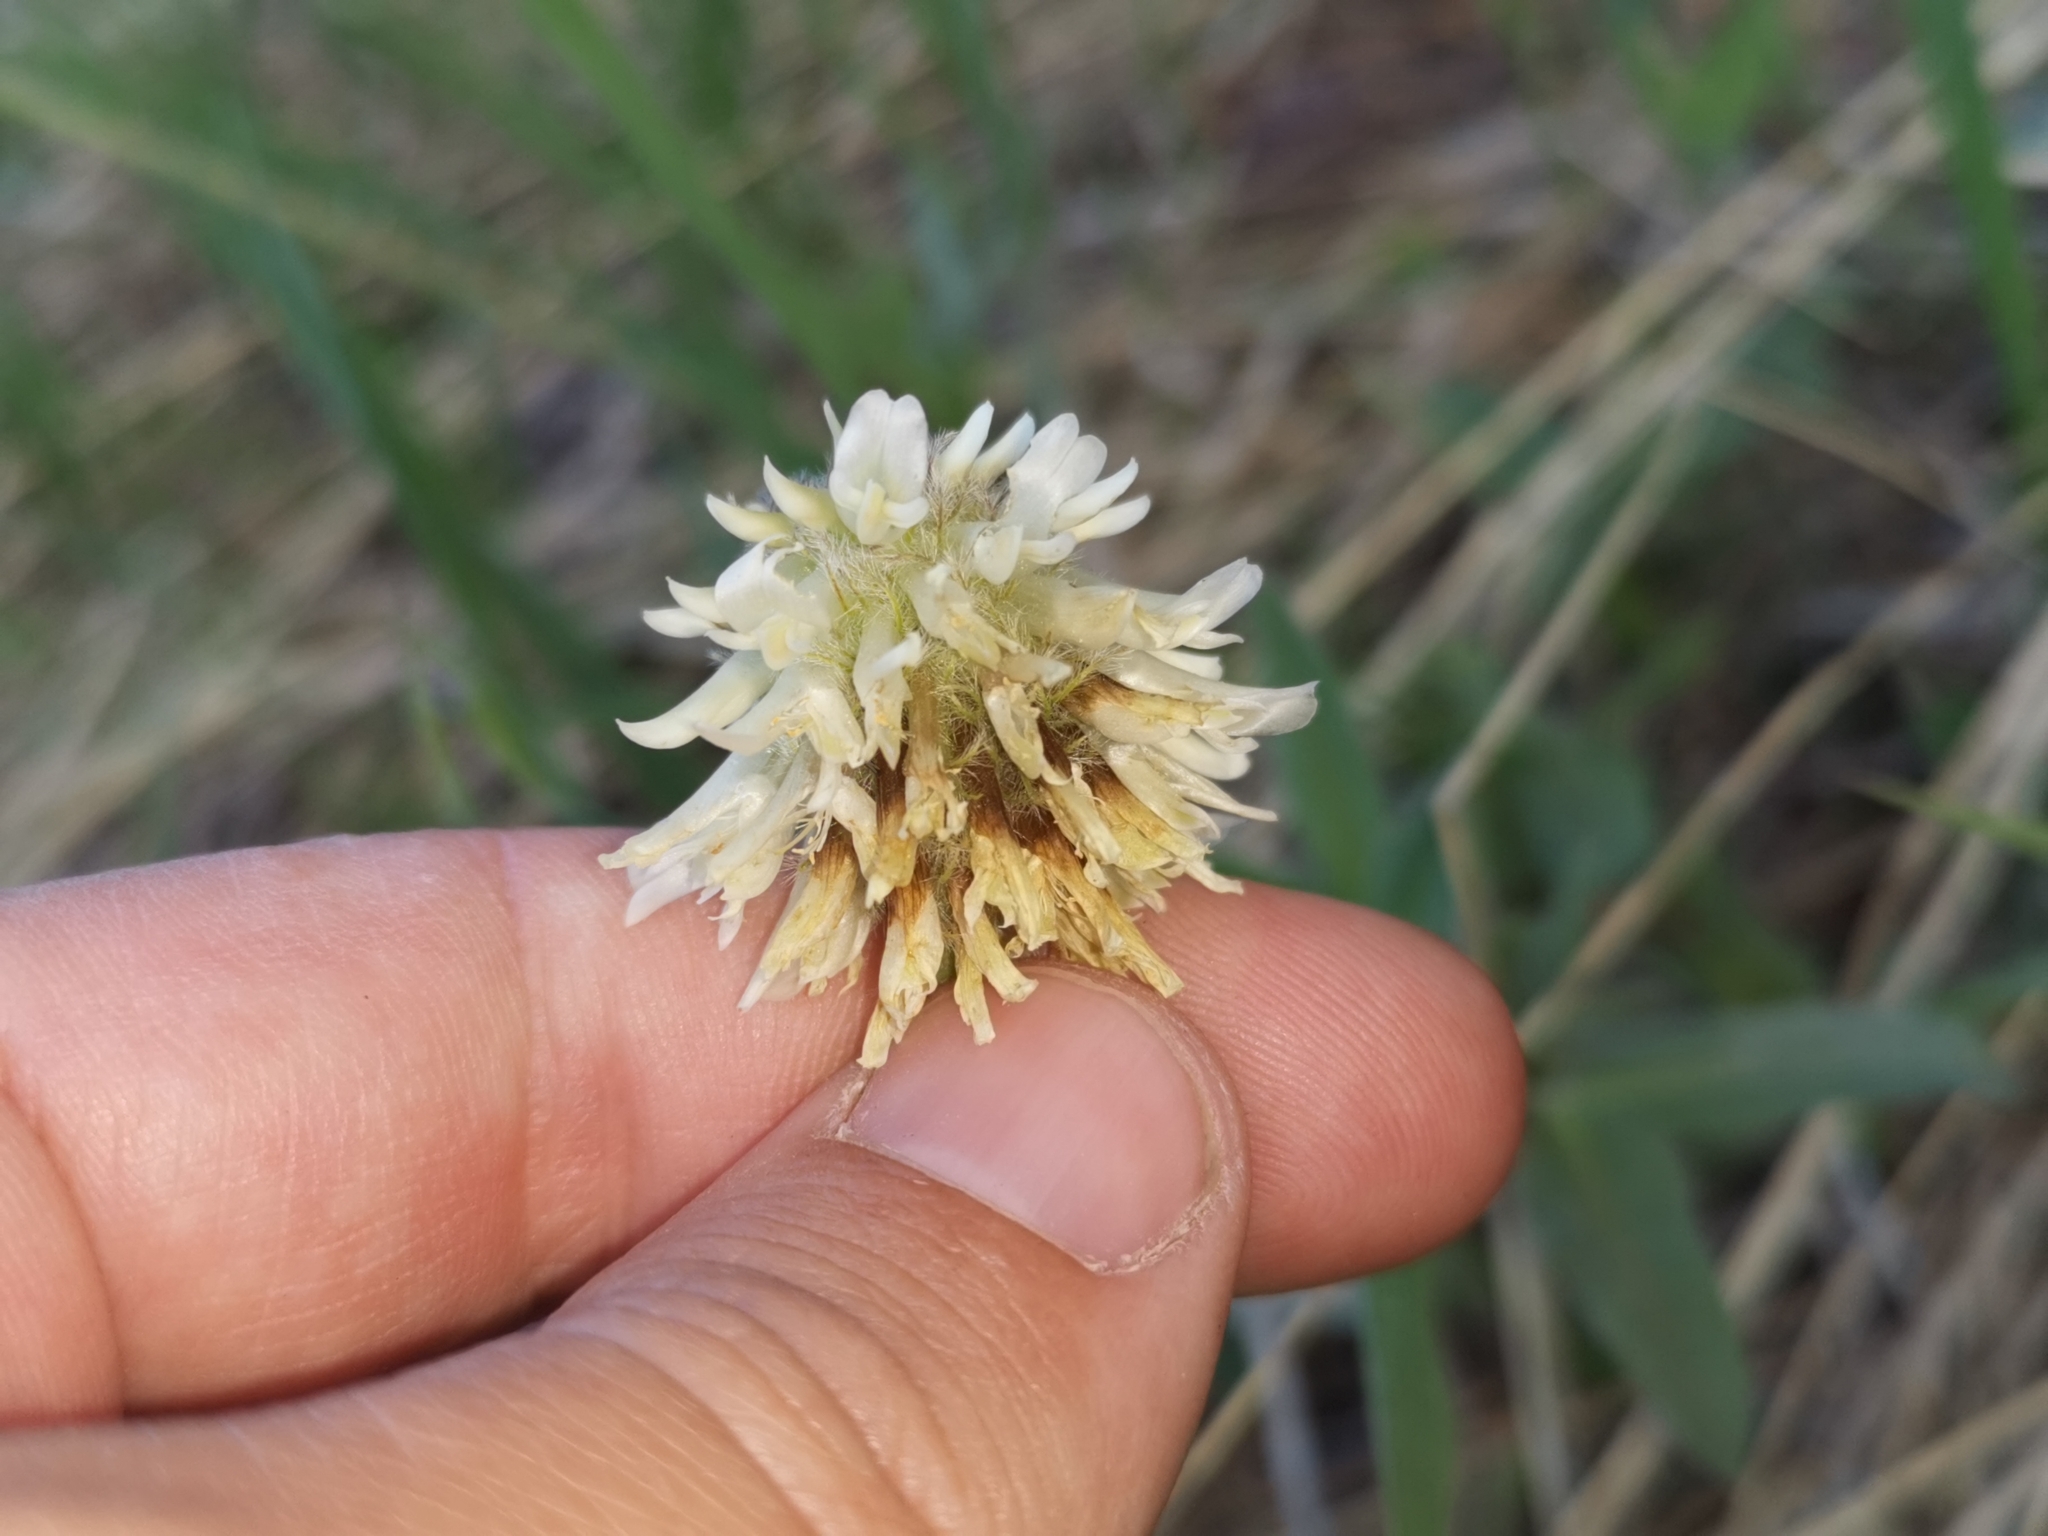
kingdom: Plantae
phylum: Tracheophyta
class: Magnoliopsida
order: Fabales
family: Fabaceae
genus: Trifolium
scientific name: Trifolium eriocephalum
